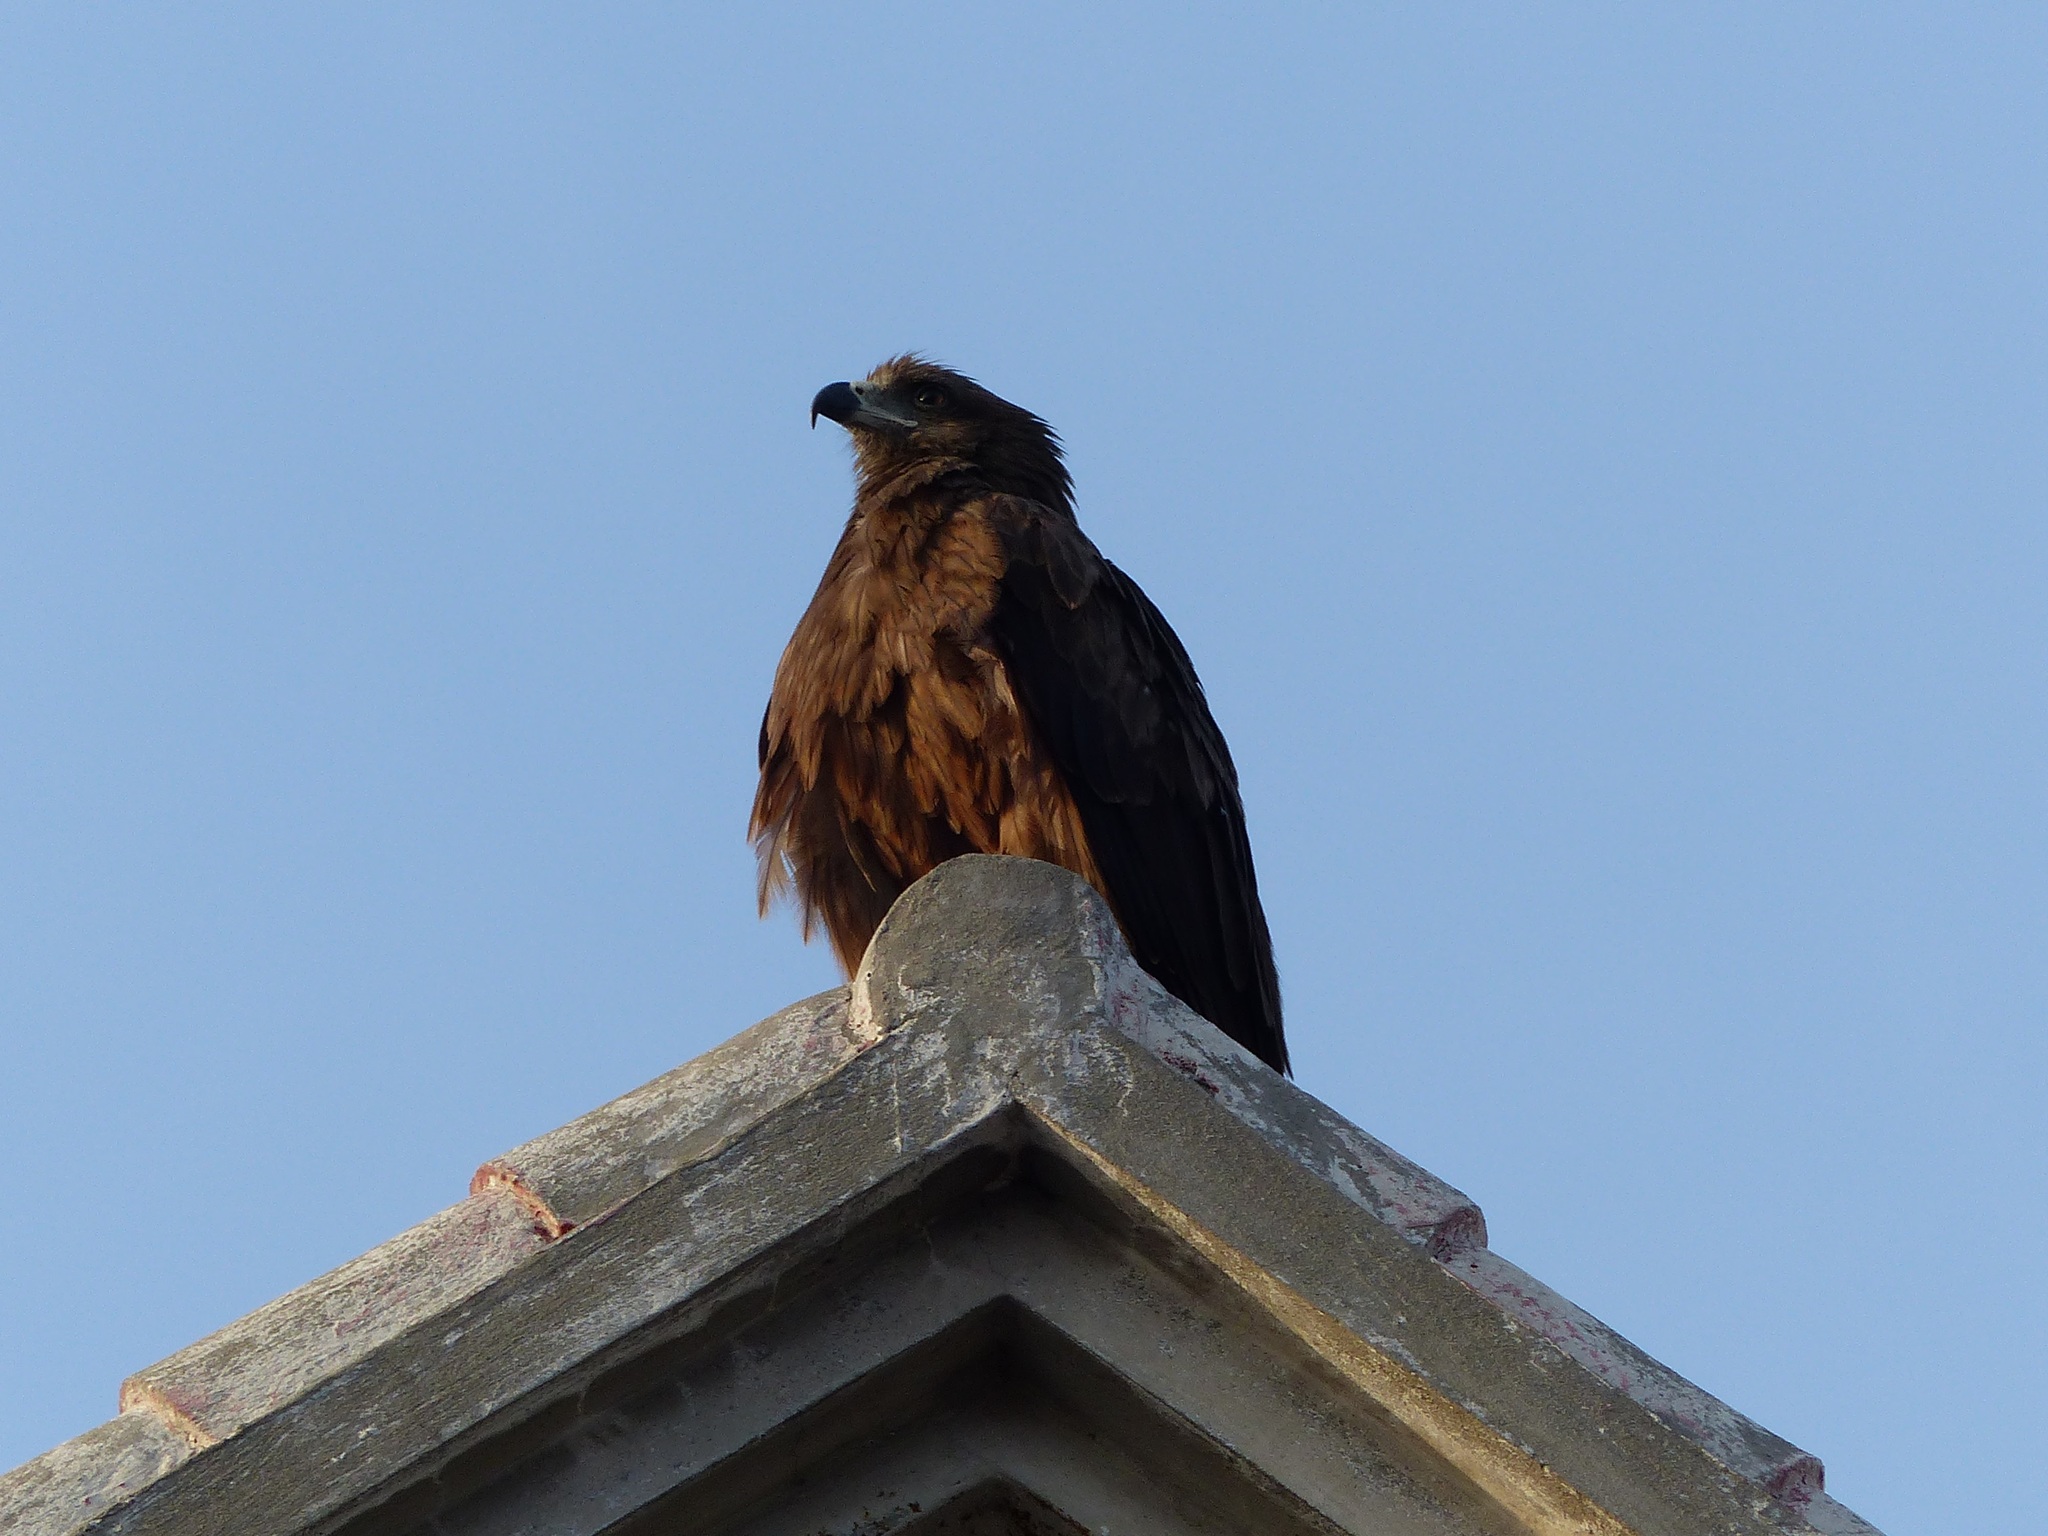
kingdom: Animalia
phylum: Chordata
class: Aves
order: Accipitriformes
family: Accipitridae
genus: Milvus
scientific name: Milvus migrans
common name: Black kite
